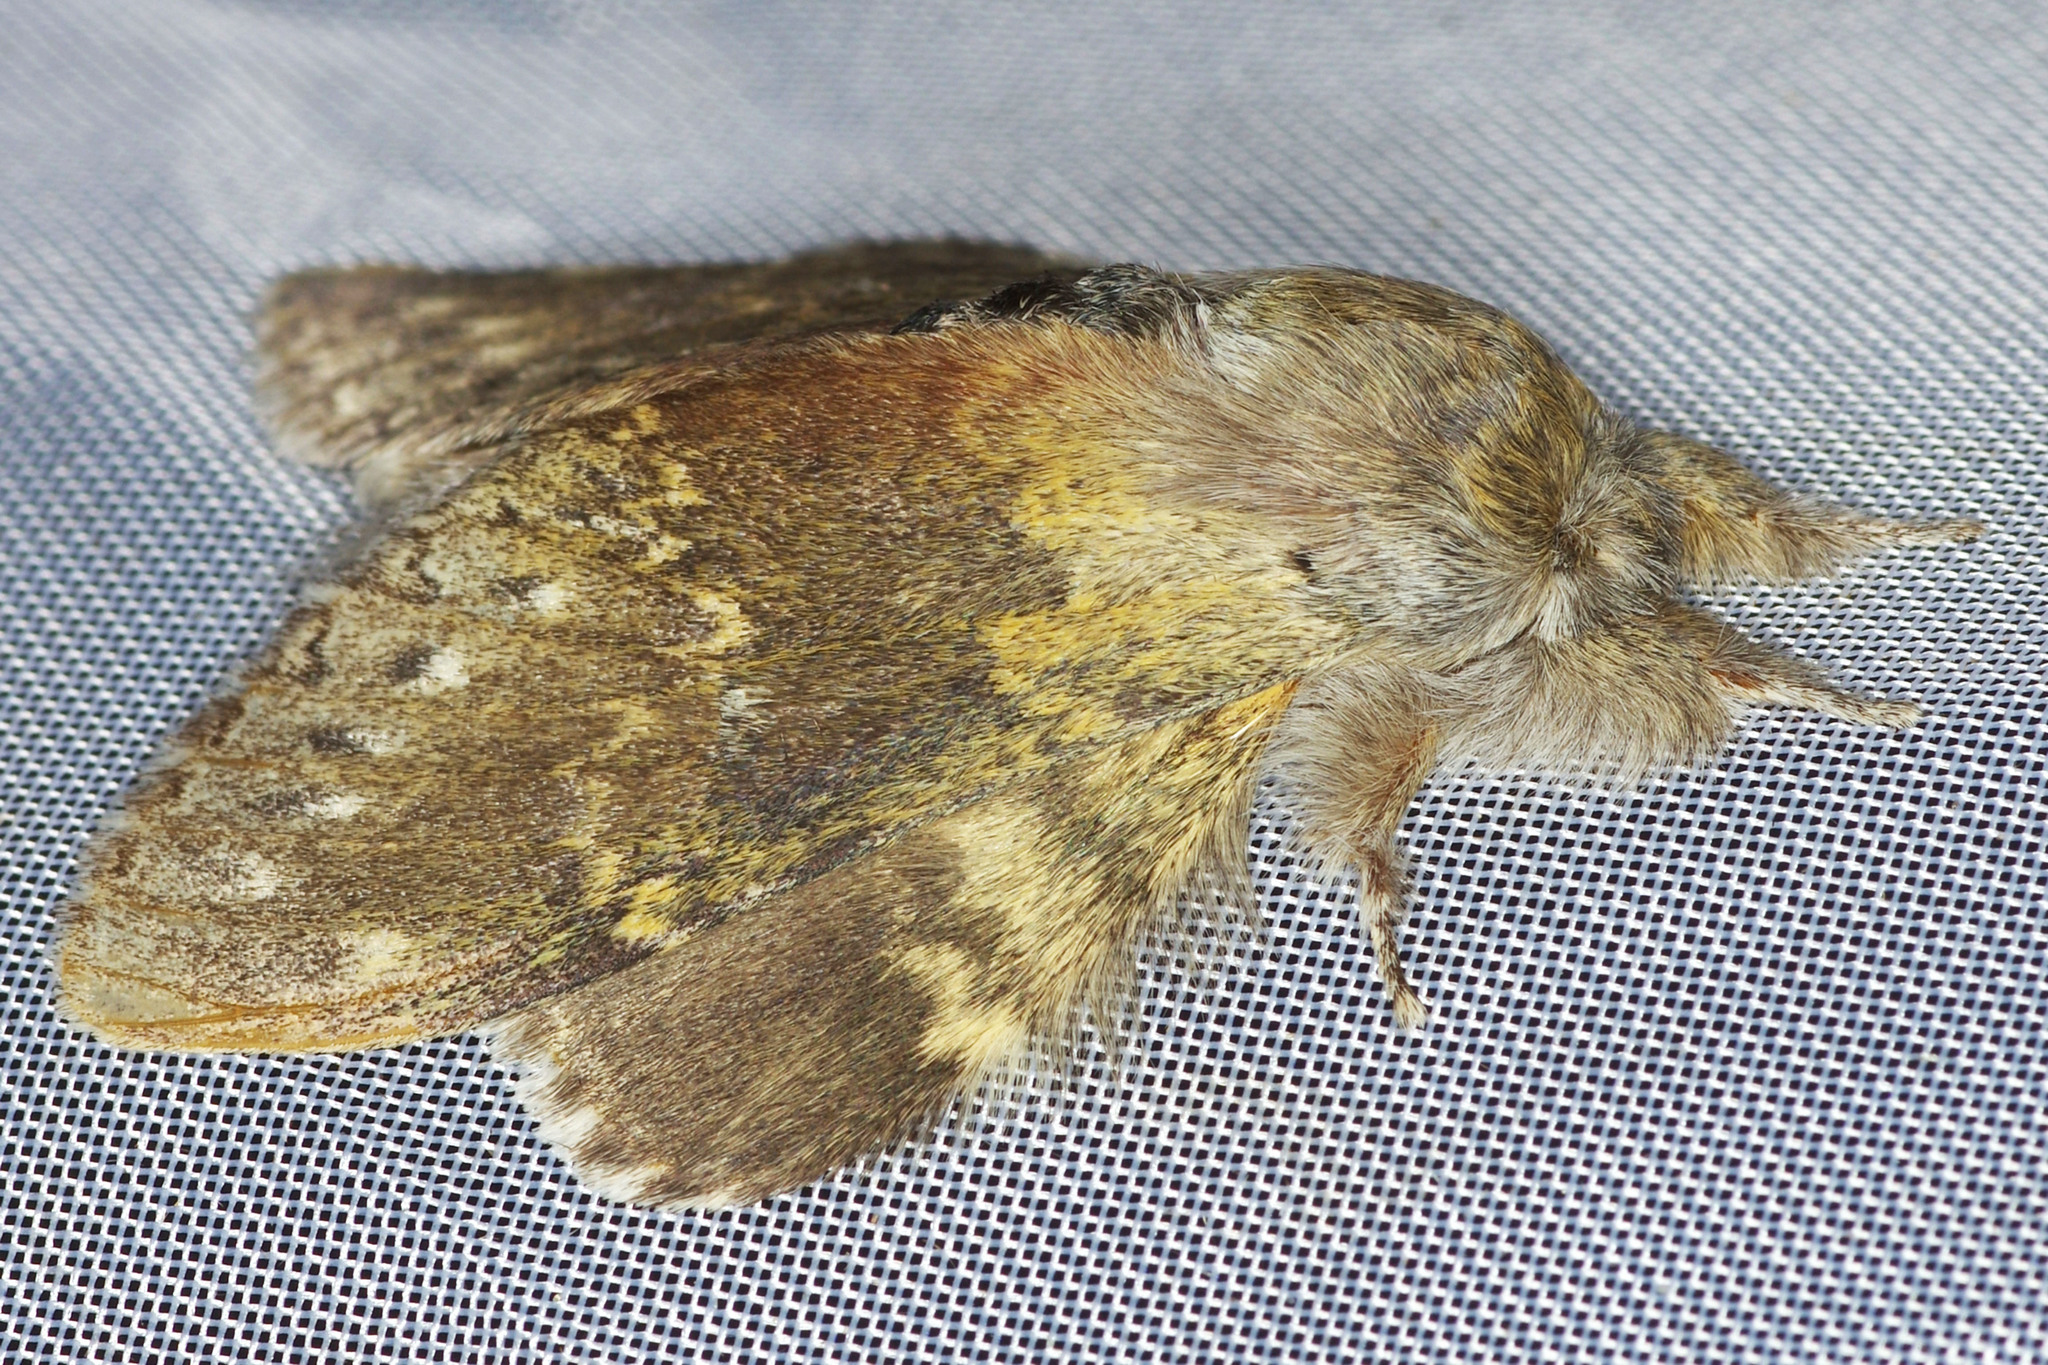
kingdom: Animalia
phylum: Arthropoda
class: Insecta
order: Lepidoptera
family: Notodontidae
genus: Stauropus
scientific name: Stauropus fagi
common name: Lobster moth
